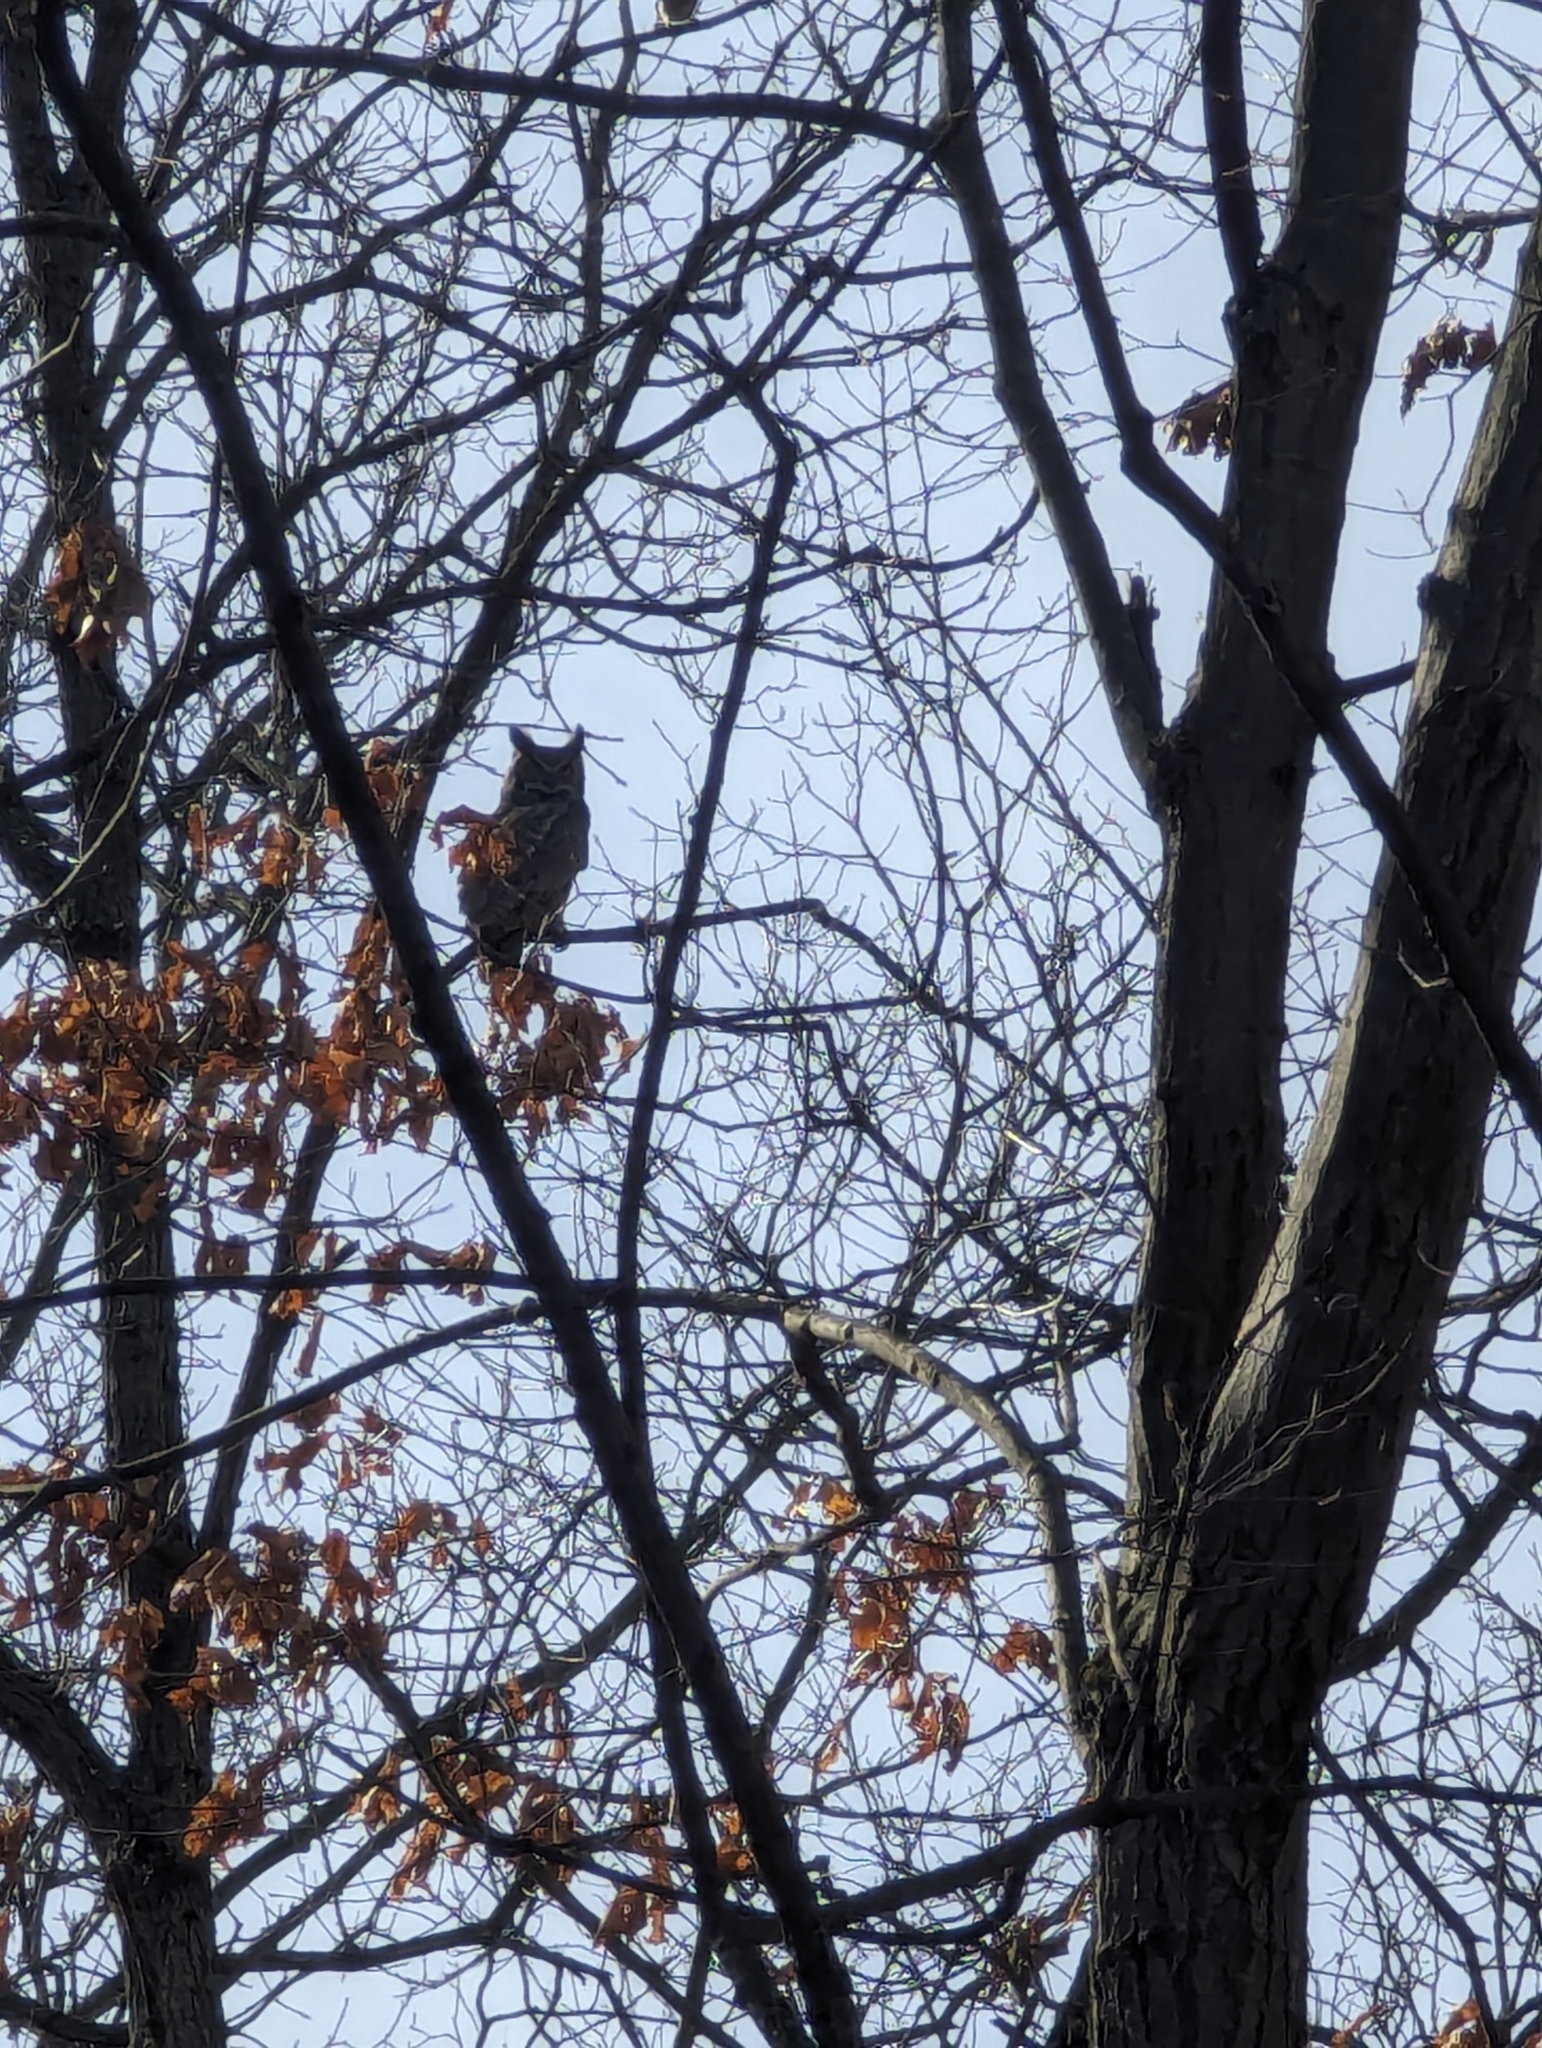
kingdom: Animalia
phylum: Chordata
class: Aves
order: Strigiformes
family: Strigidae
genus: Bubo
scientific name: Bubo virginianus
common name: Great horned owl
